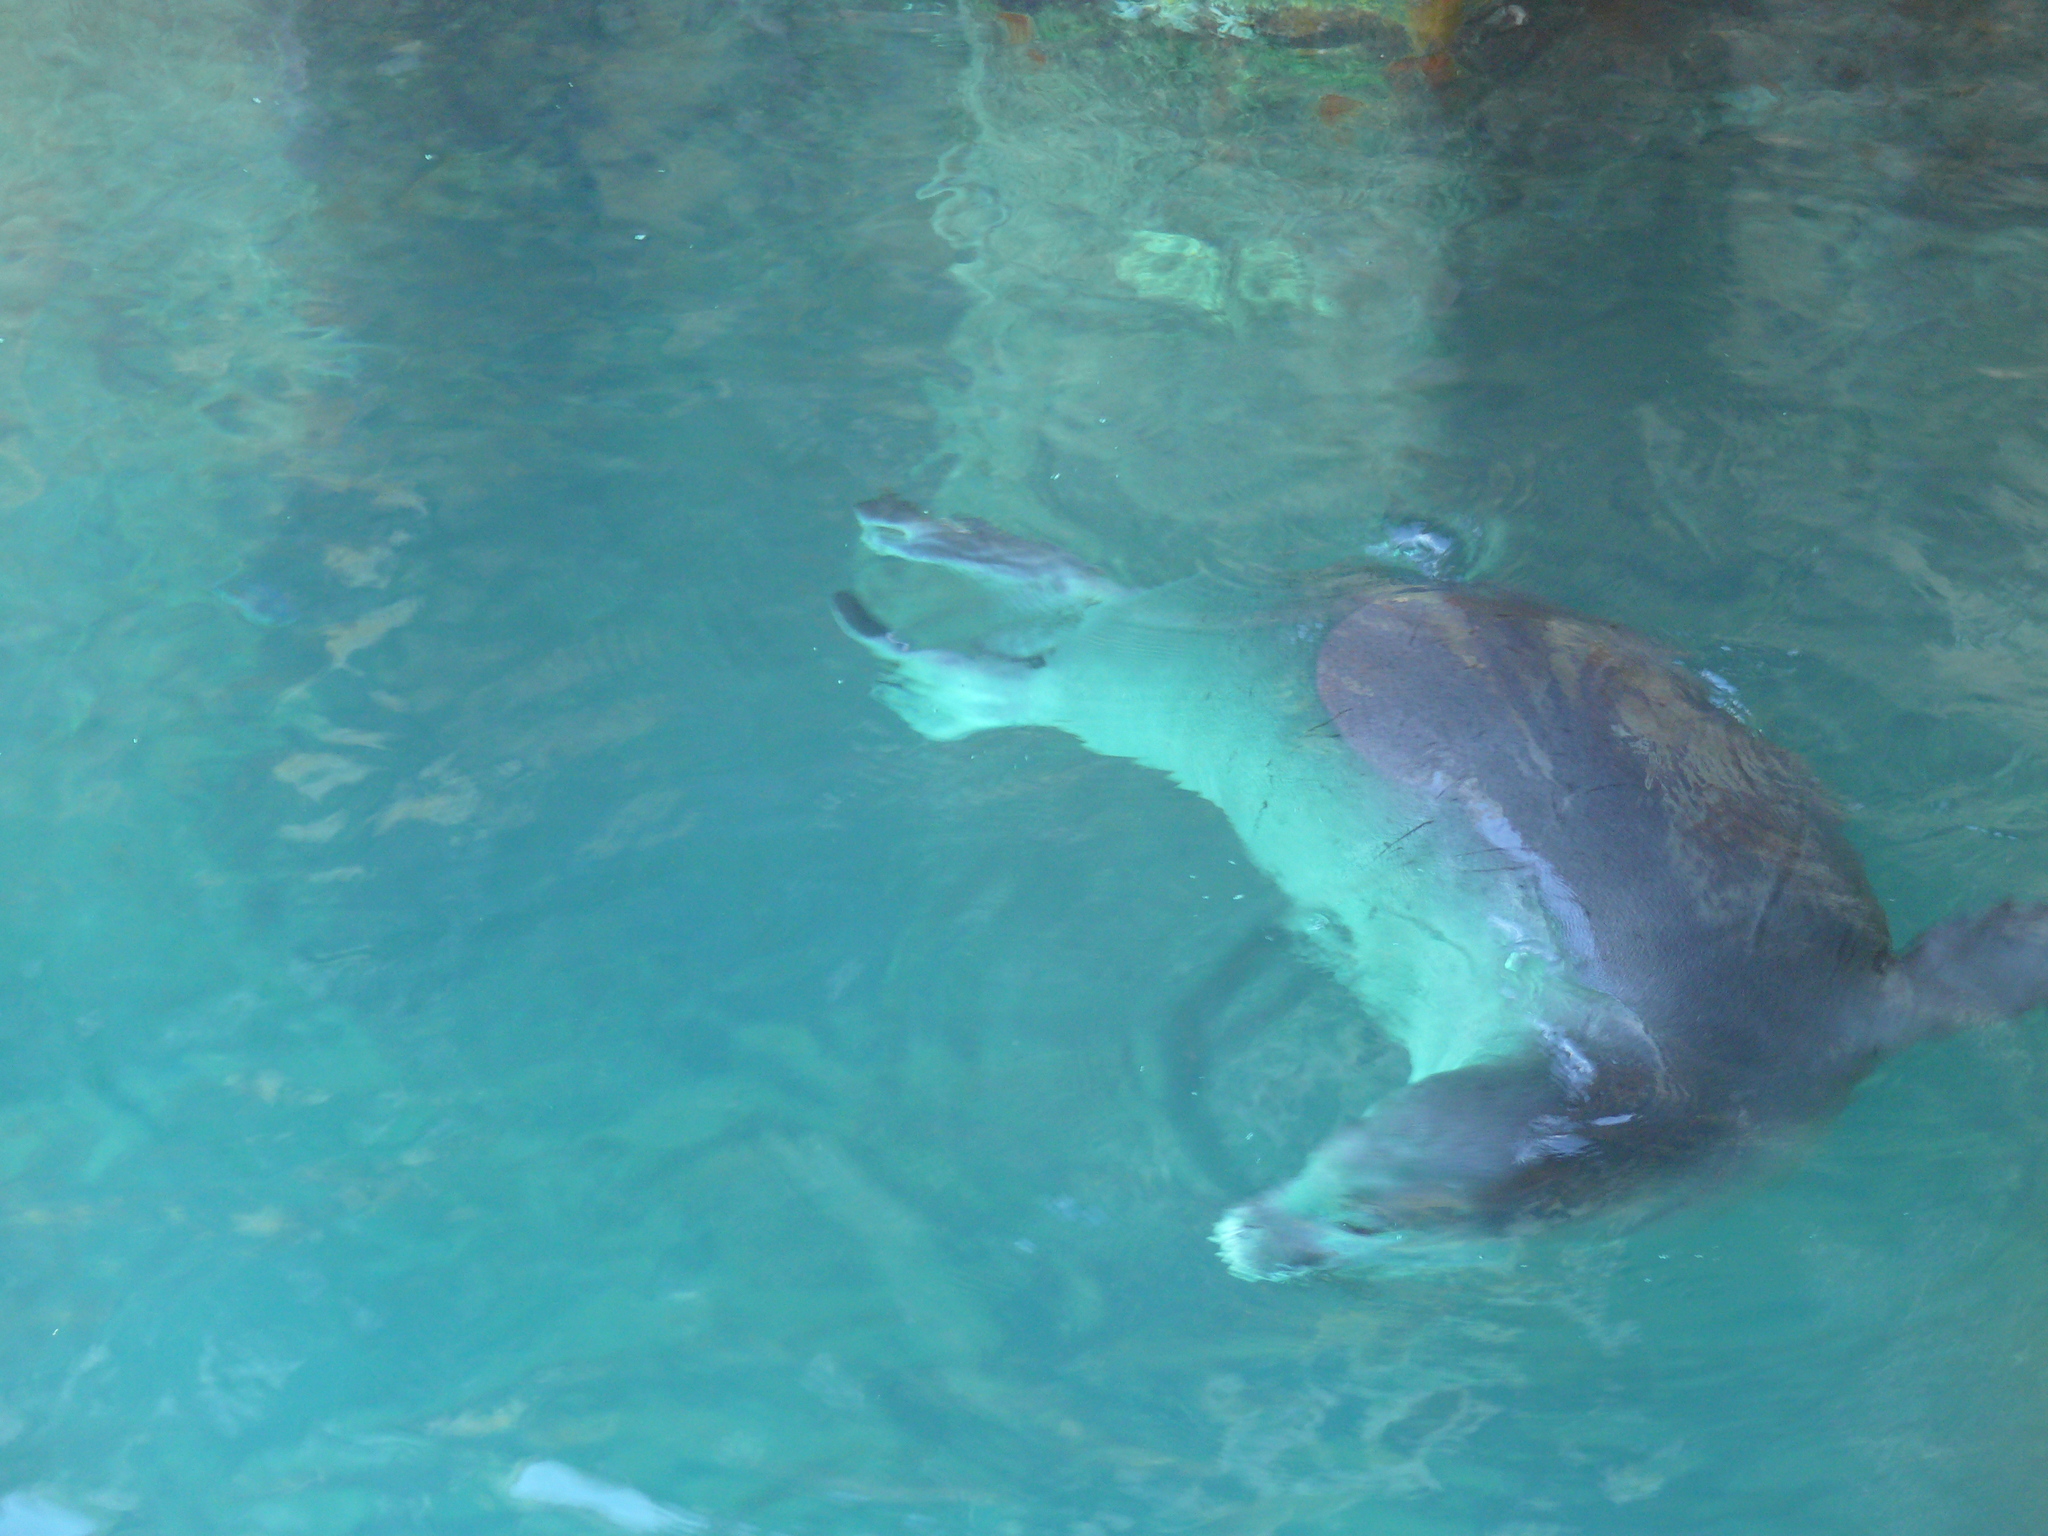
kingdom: Animalia
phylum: Chordata
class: Mammalia
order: Carnivora
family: Phocidae
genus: Neomonachus
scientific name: Neomonachus schauinslandi
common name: Hawaiian monk seal
